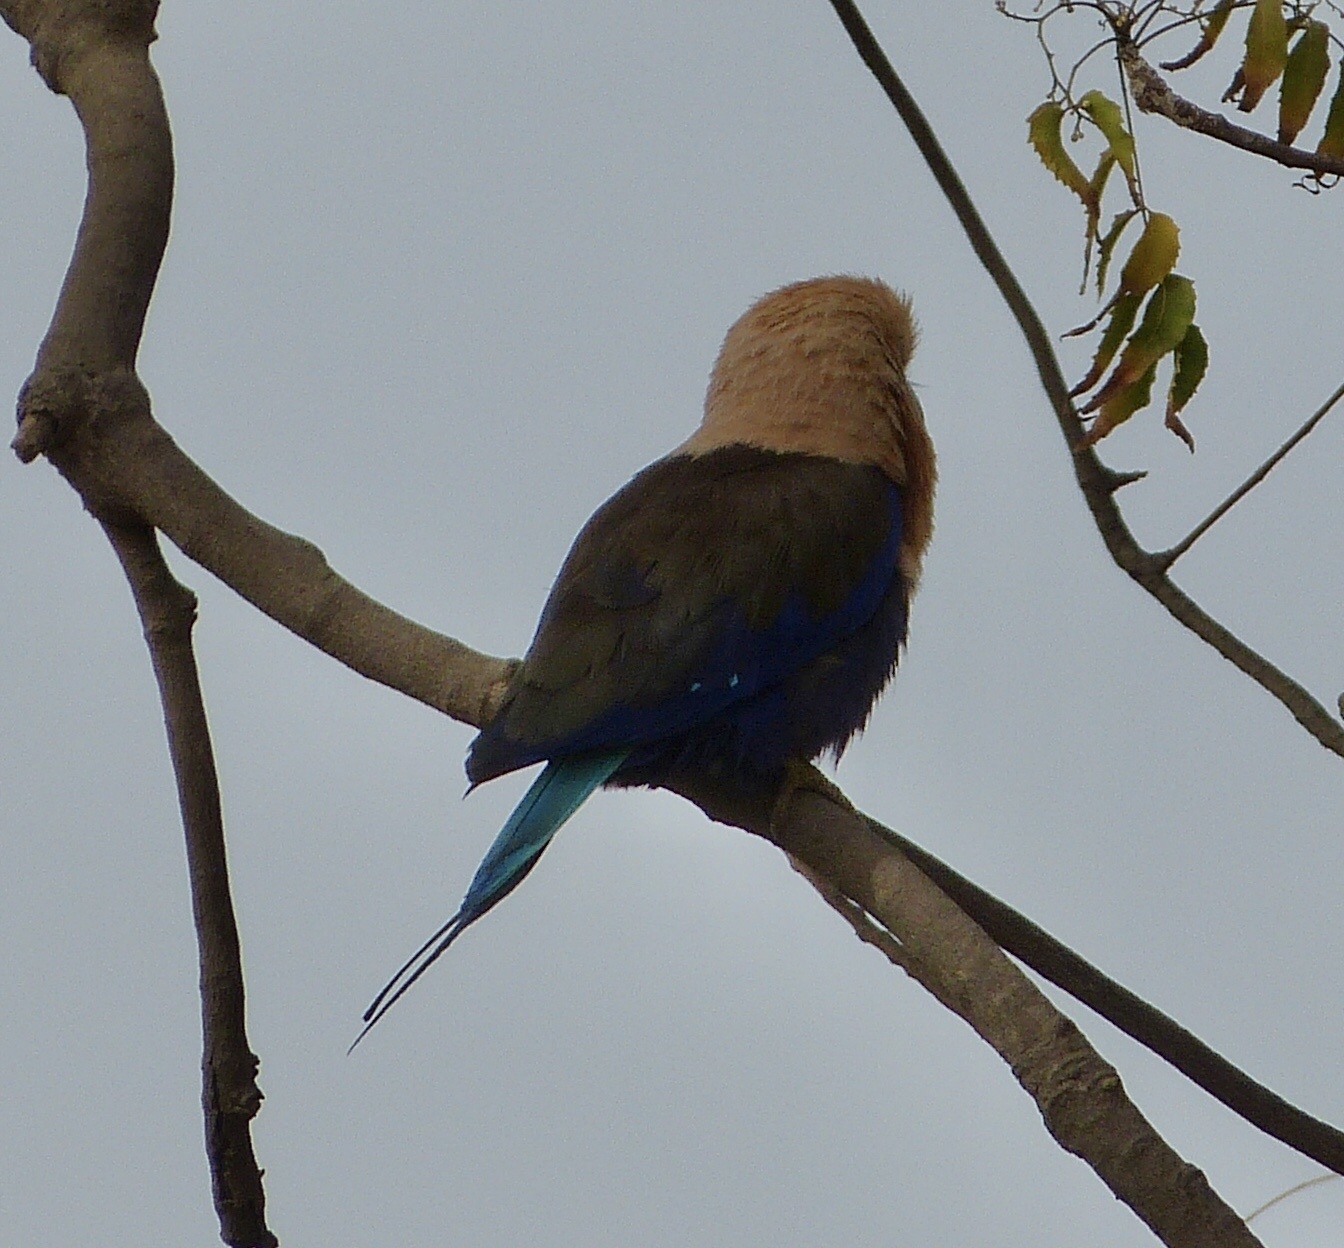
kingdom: Animalia
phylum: Chordata
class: Aves
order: Coraciiformes
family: Coraciidae
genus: Coracias
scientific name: Coracias cyanogaster
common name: Blue-bellied roller
